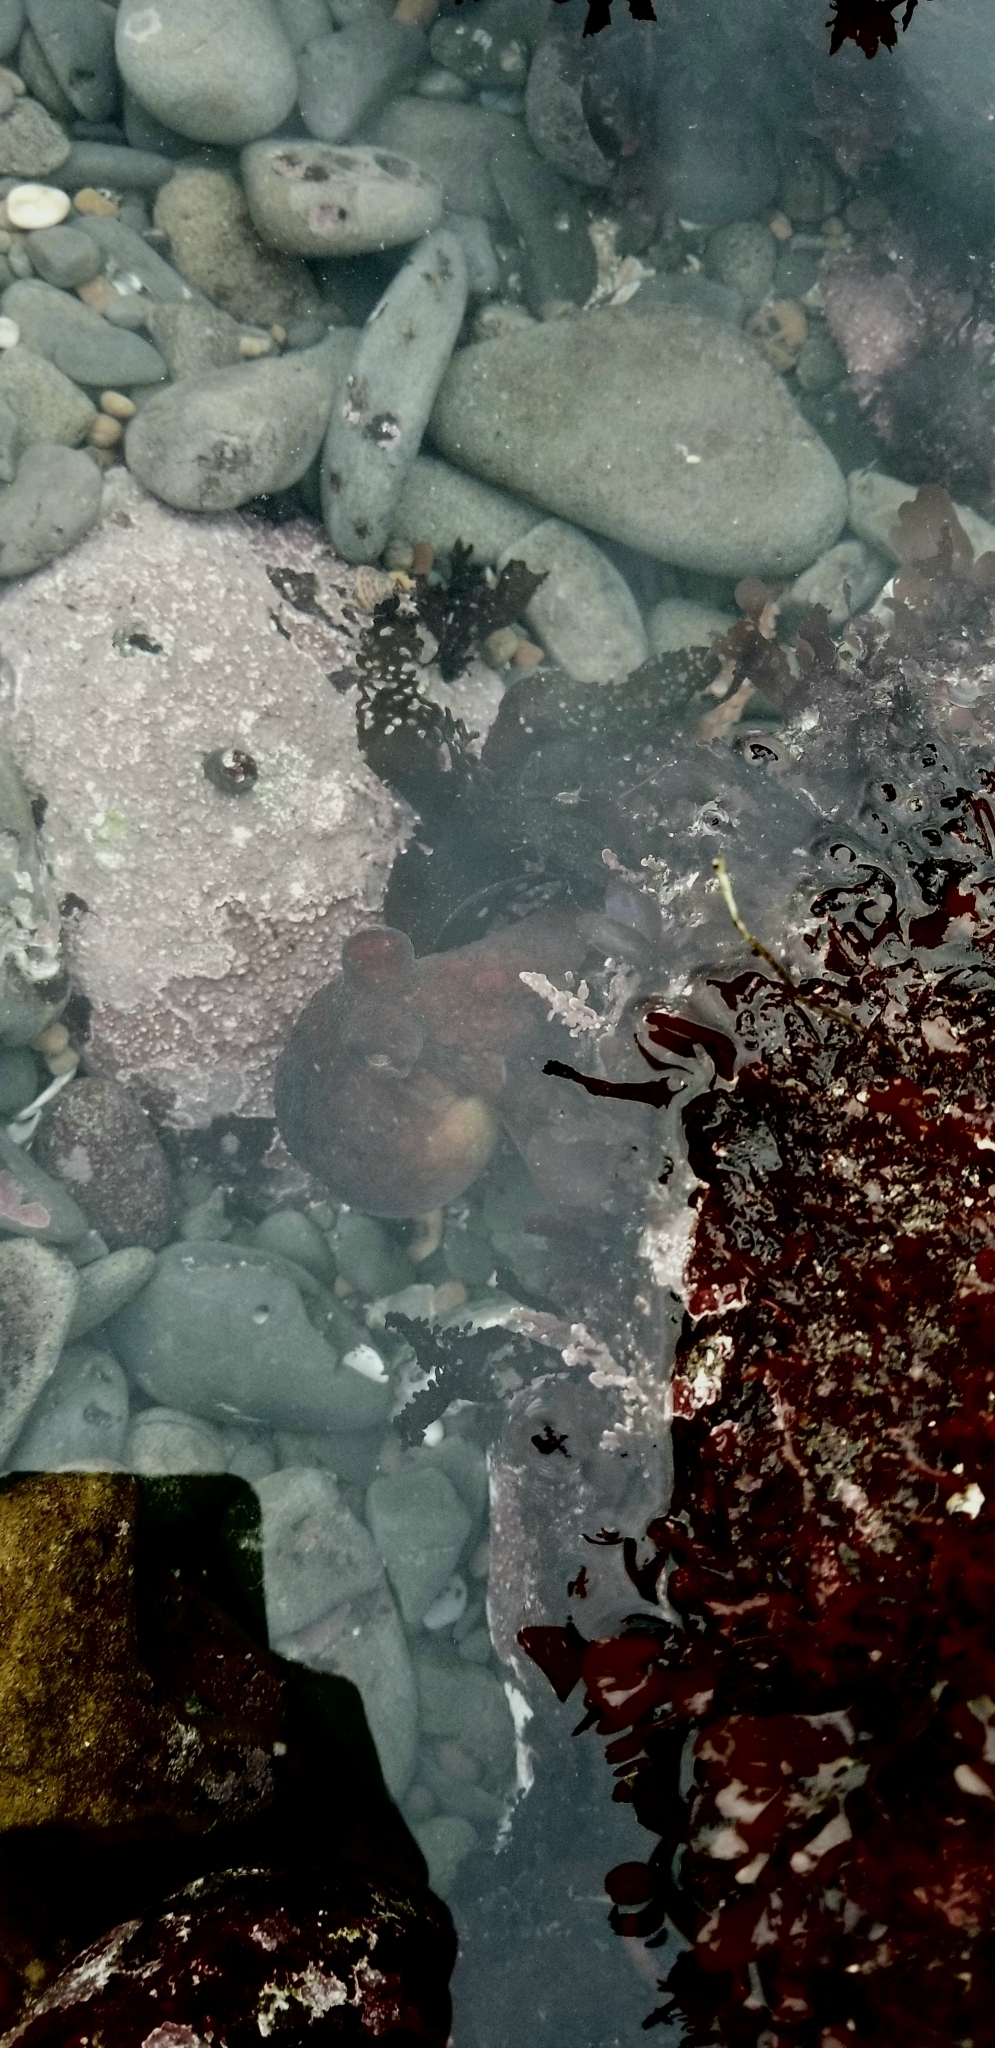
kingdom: Animalia
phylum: Mollusca
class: Cephalopoda
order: Octopoda
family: Octopodidae
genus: Octopus
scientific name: Octopus rubescens
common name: East pacific red octopus
